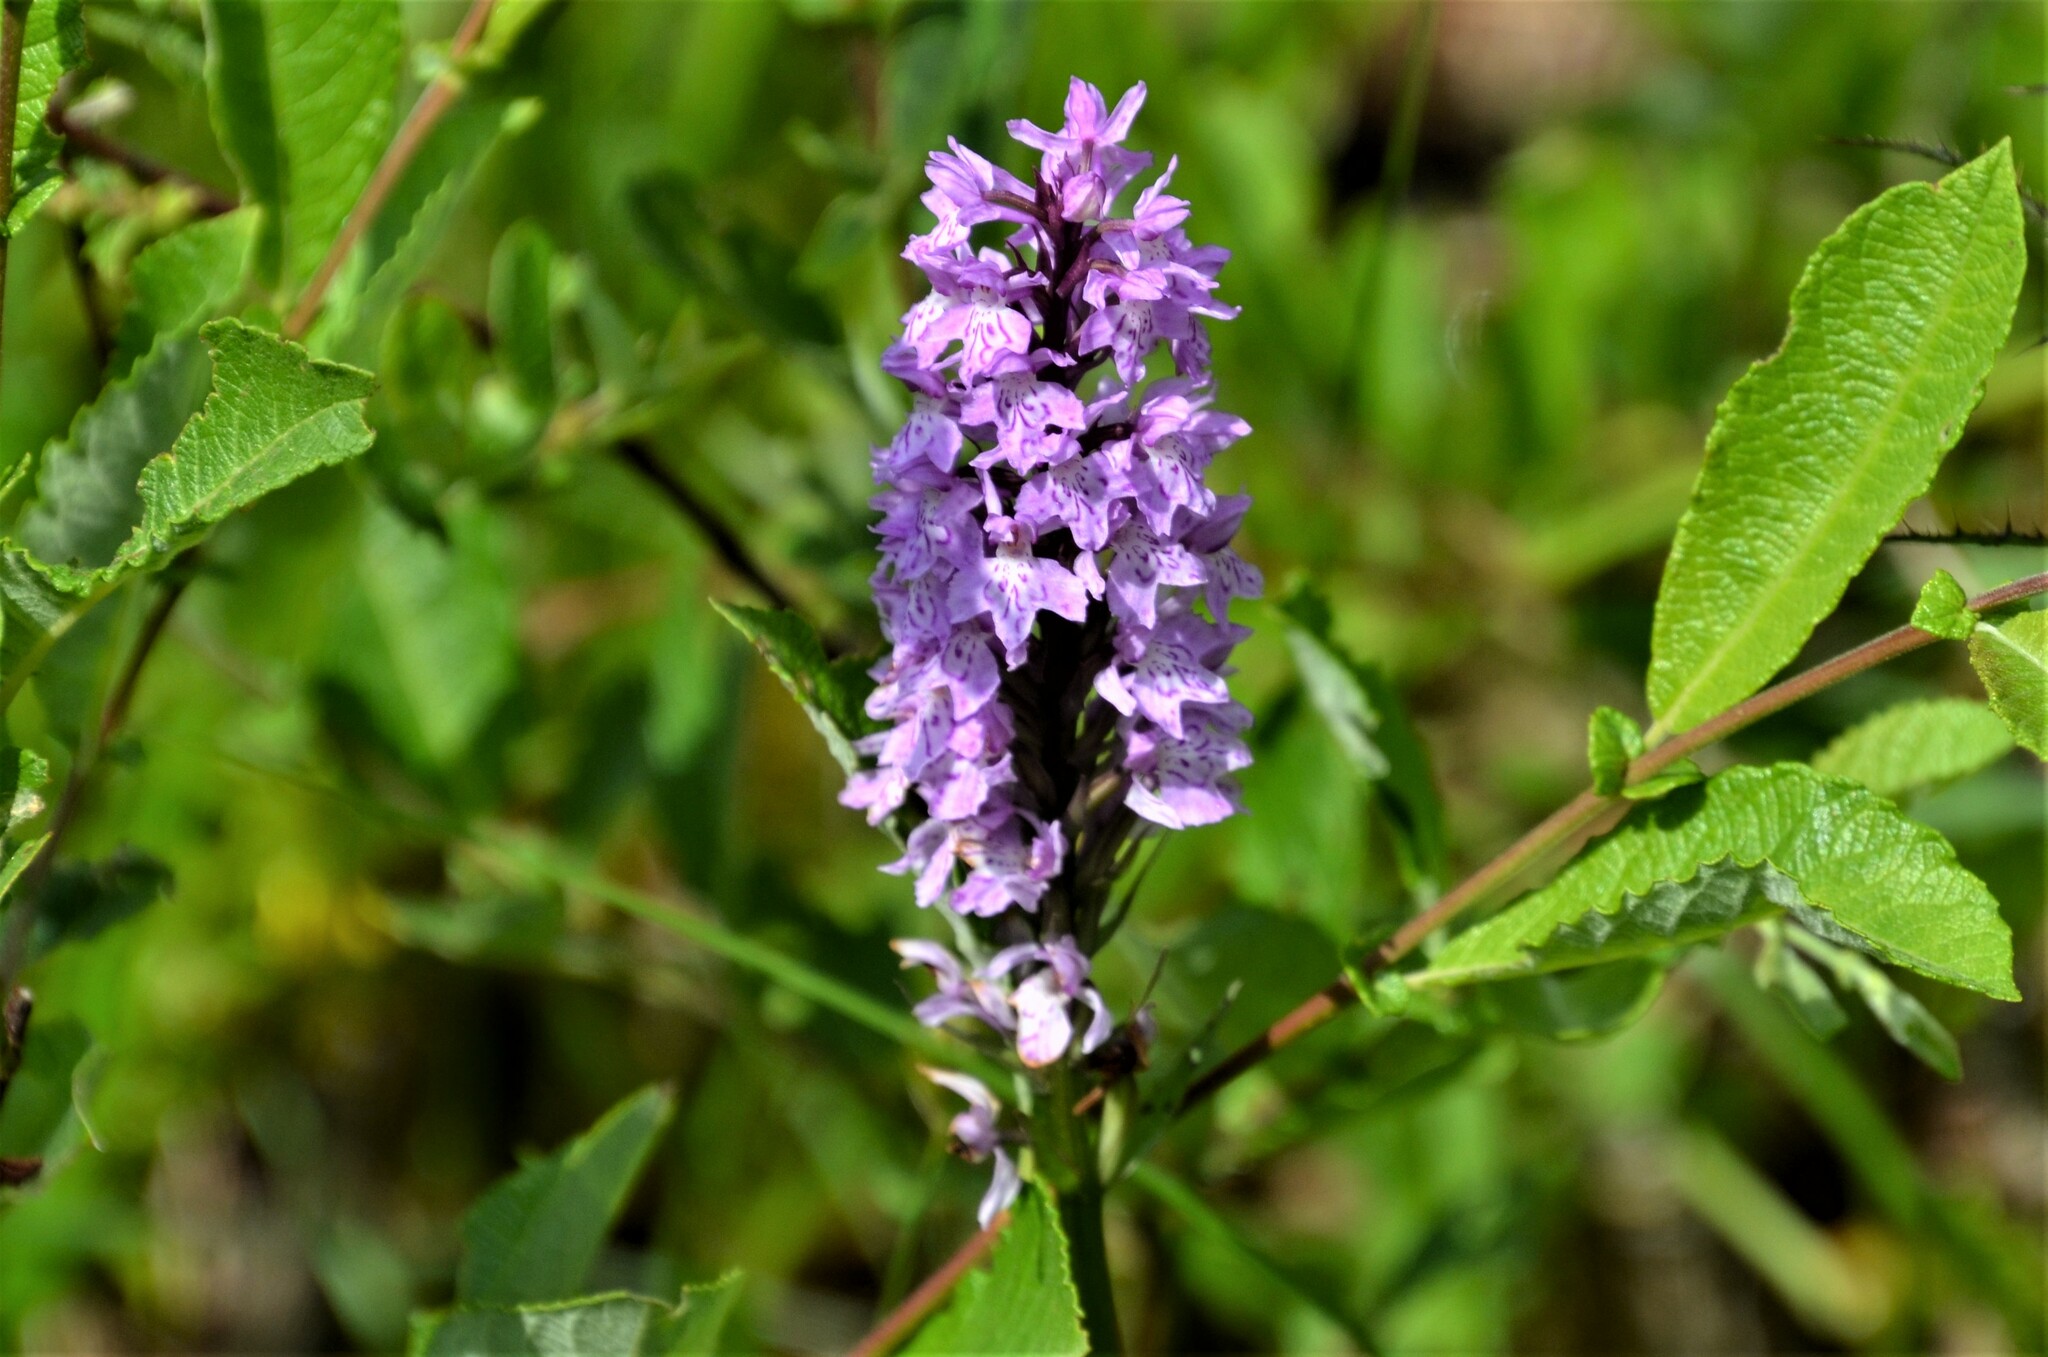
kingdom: Plantae
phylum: Tracheophyta
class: Liliopsida
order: Asparagales
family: Orchidaceae
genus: Dactylorhiza
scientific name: Dactylorhiza maculata
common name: Heath spotted-orchid
